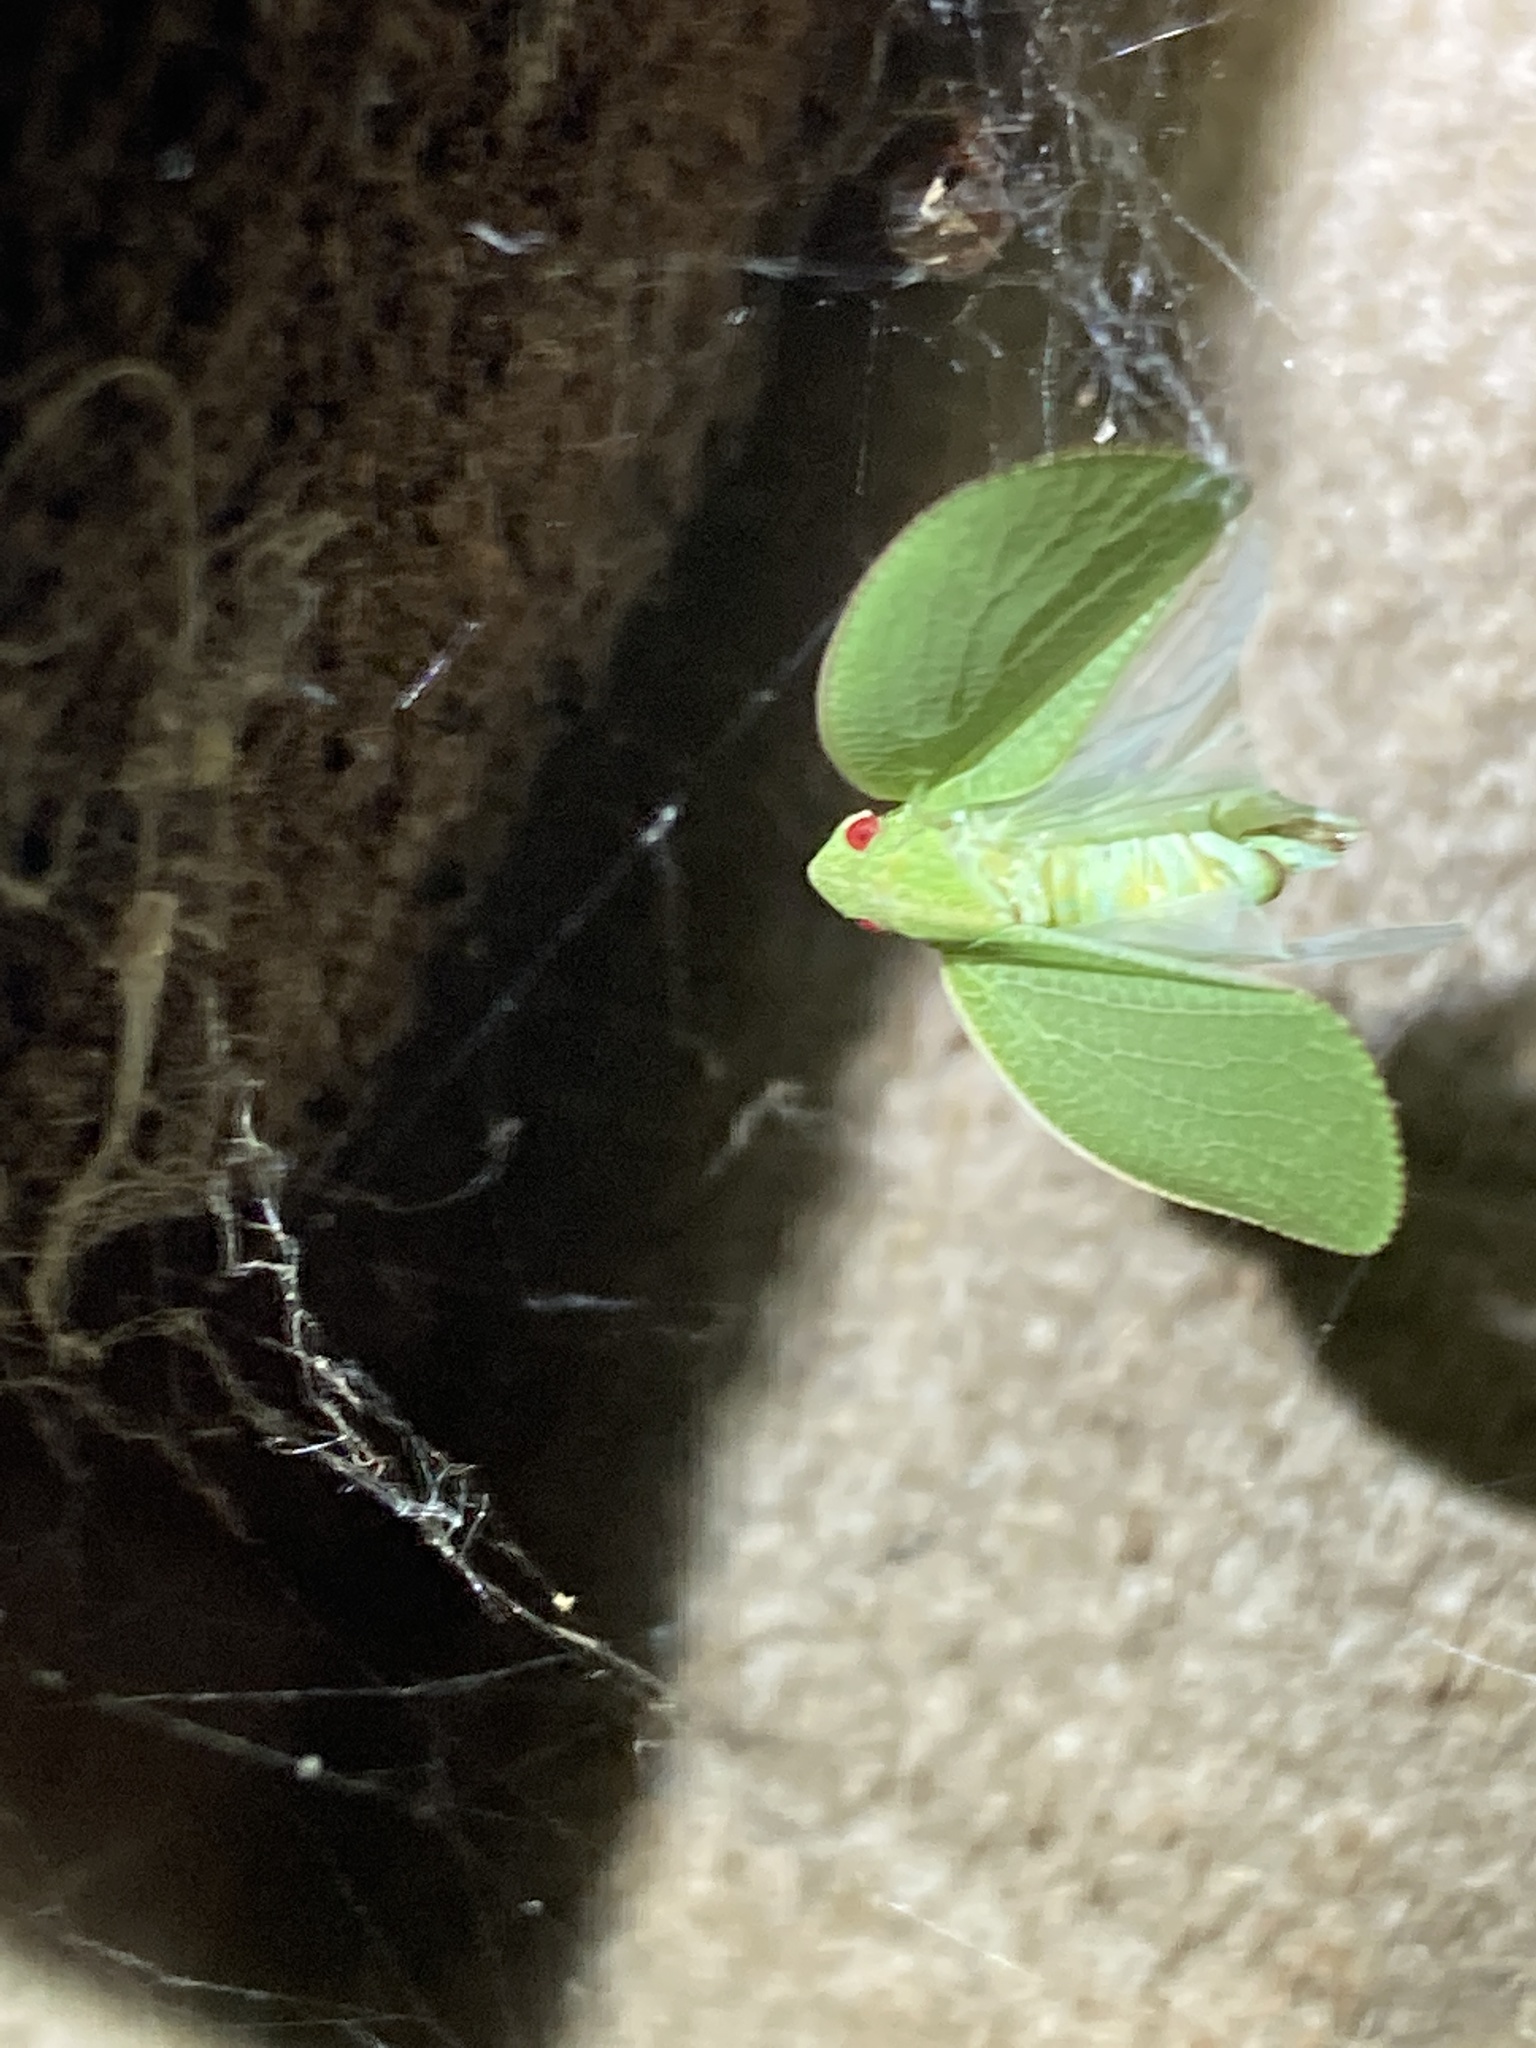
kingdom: Animalia
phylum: Arthropoda
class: Insecta
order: Hemiptera
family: Acanaloniidae
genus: Acanalonia
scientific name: Acanalonia conica
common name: Green cone-headed planthopper
